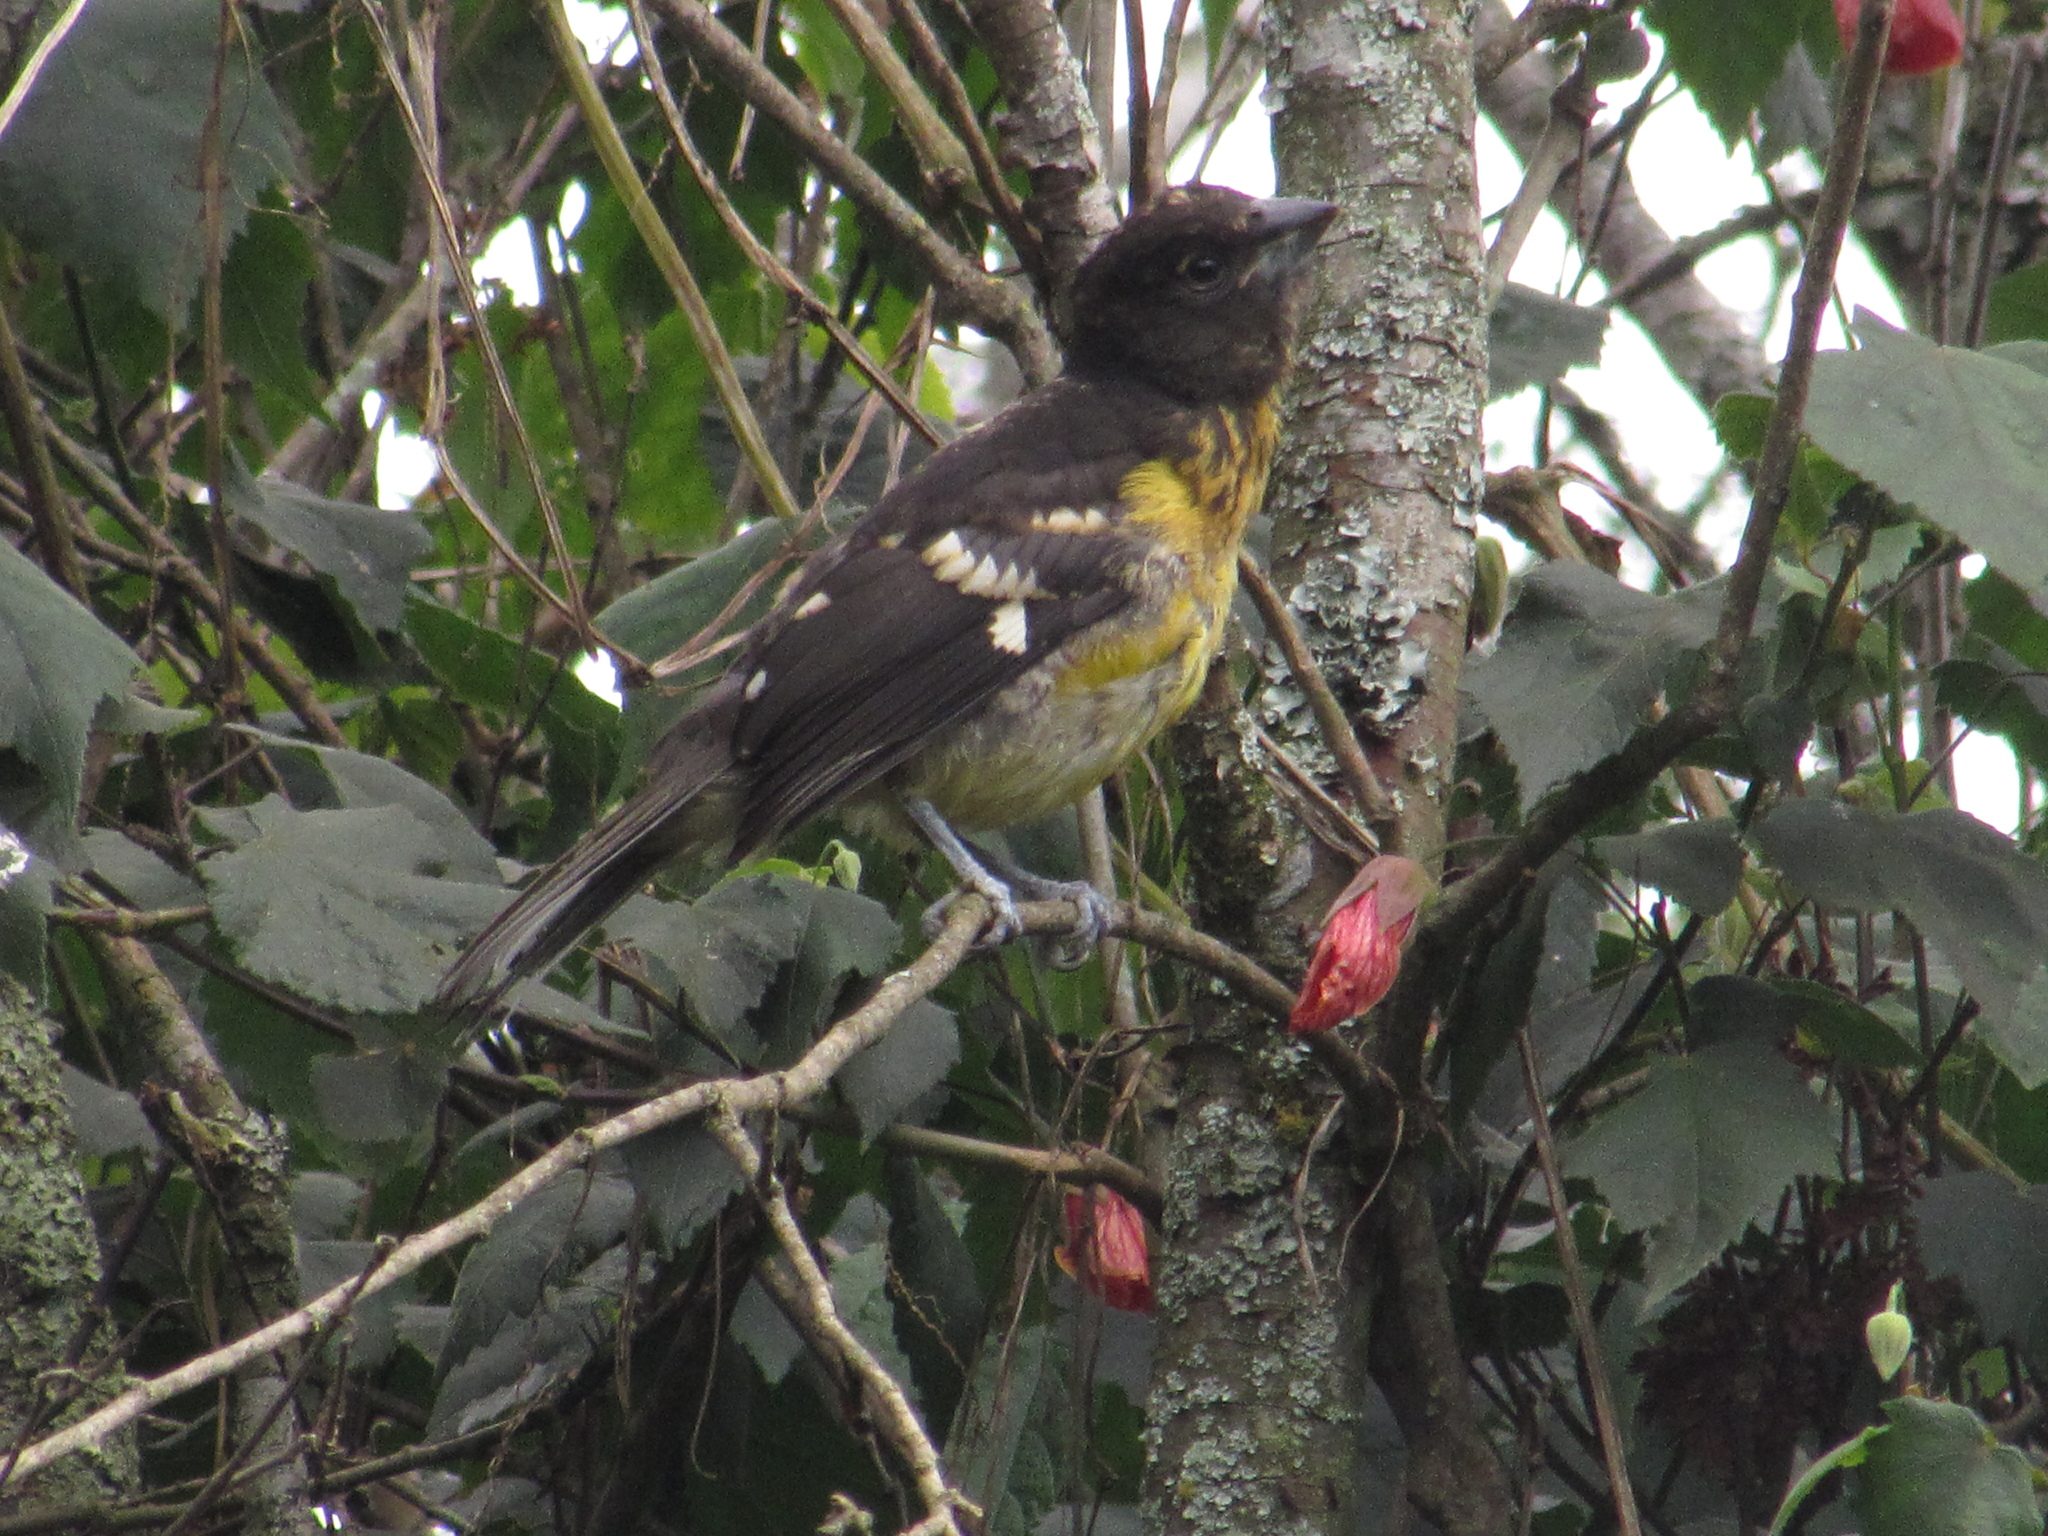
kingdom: Animalia
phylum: Chordata
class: Aves
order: Passeriformes
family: Cardinalidae
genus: Pheucticus
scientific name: Pheucticus aureoventris
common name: Black-backed grosbeak
